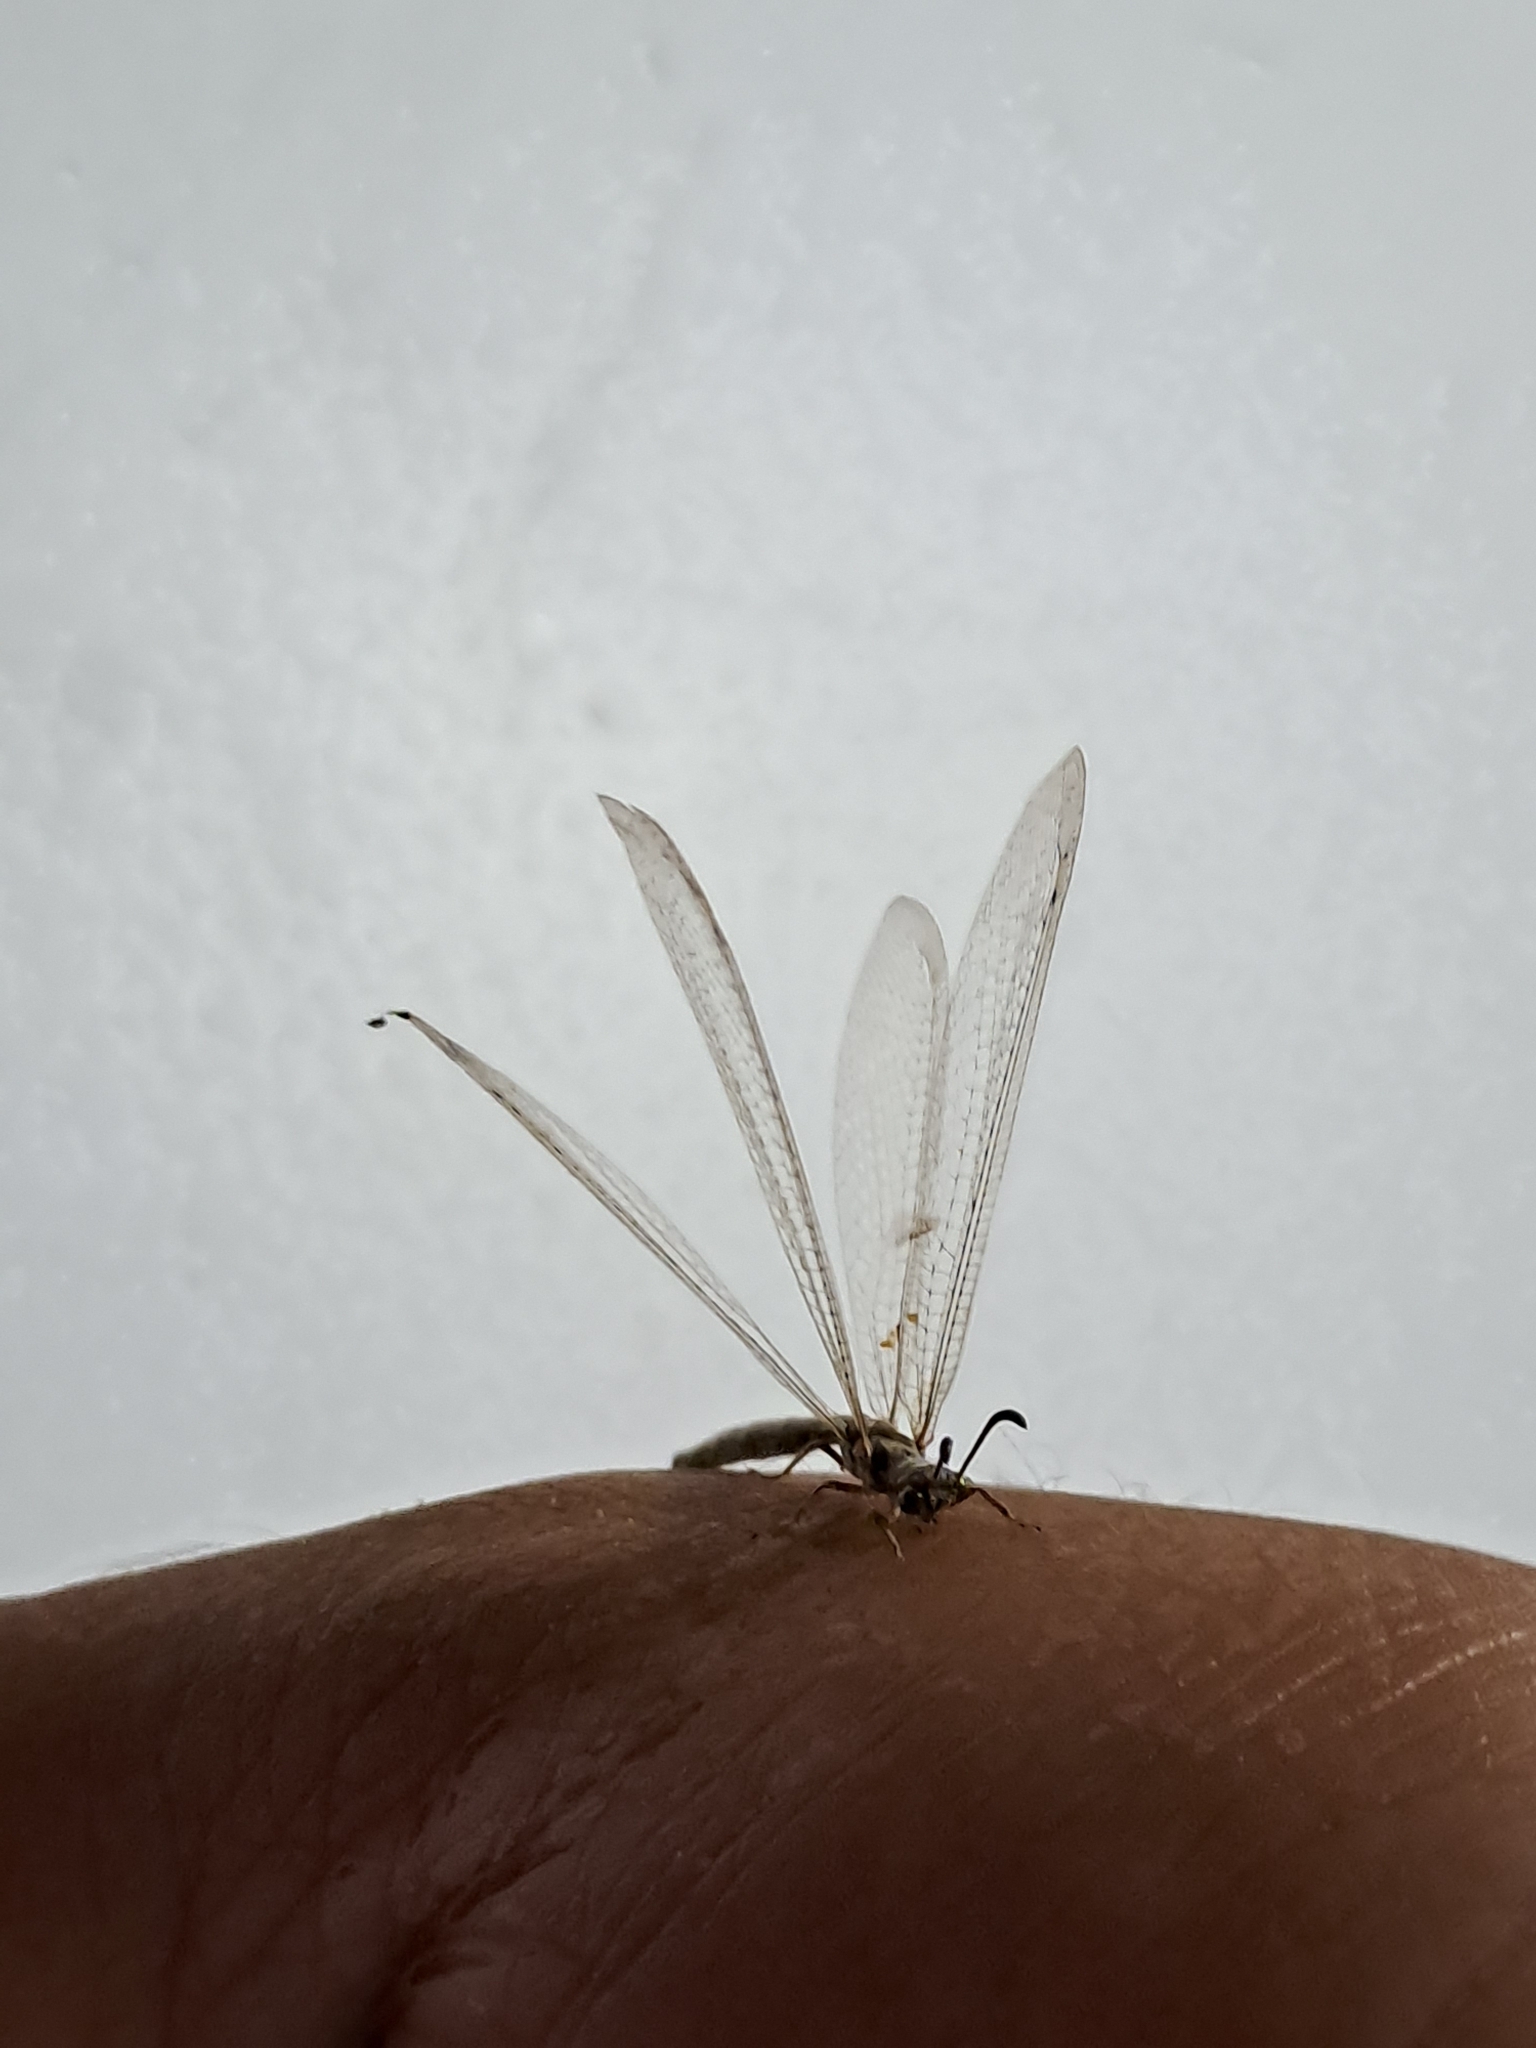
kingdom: Animalia
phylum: Arthropoda
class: Insecta
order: Neuroptera
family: Myrmeleontidae
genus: Myrmeleon
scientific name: Myrmeleon timidus
